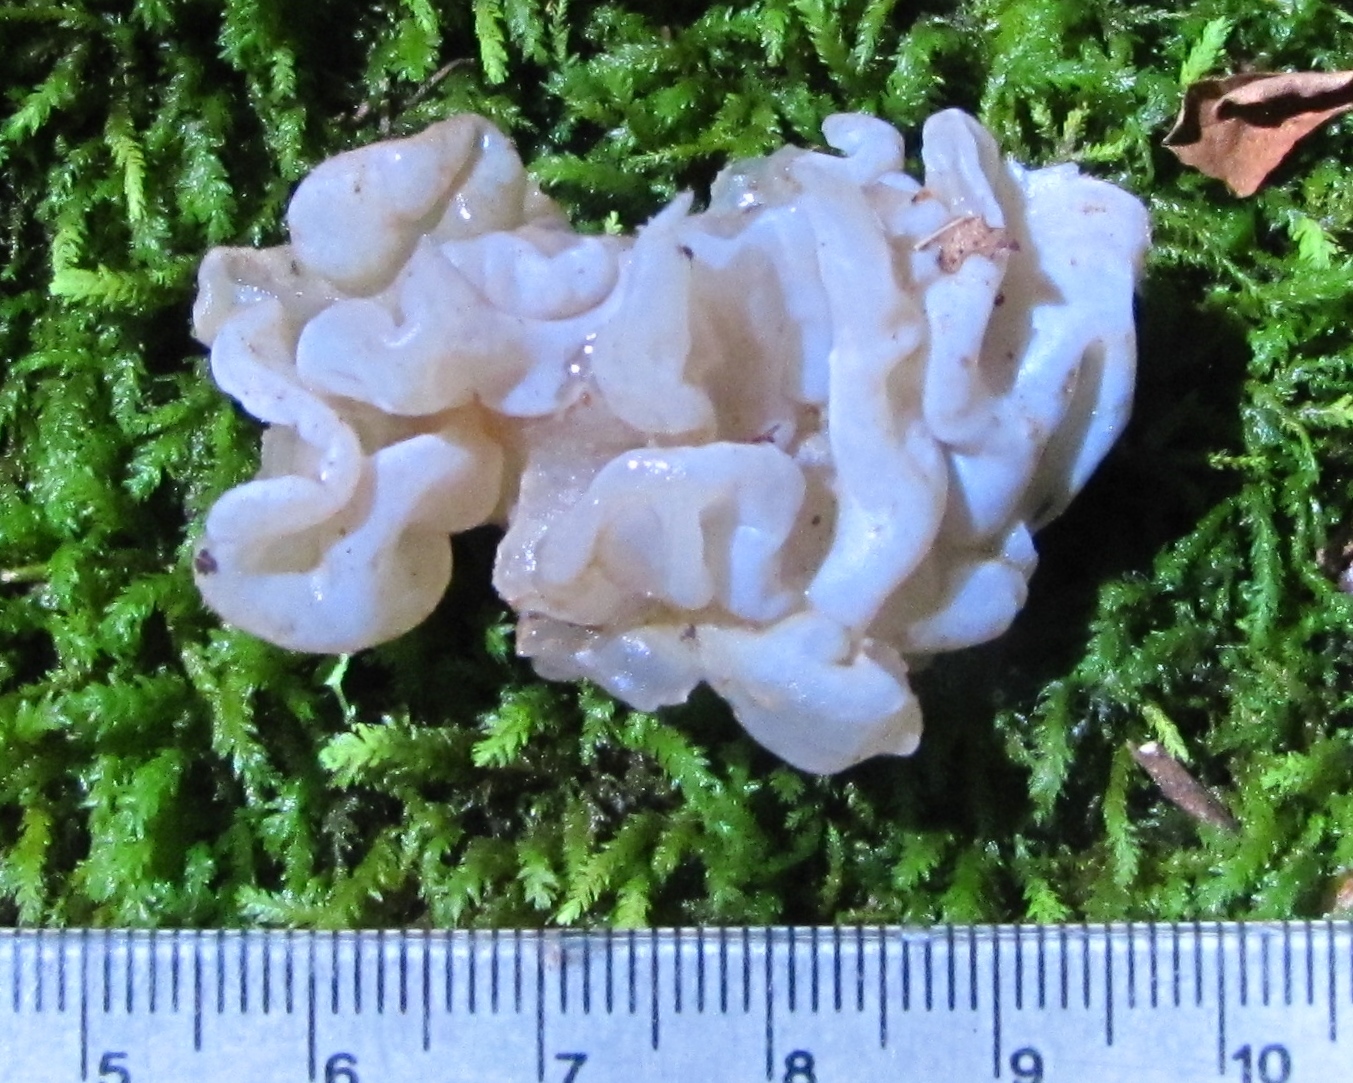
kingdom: Fungi
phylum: Basidiomycota
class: Agaricomycetes
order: Auriculariales
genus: Ductifera
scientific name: Ductifera pululahuana
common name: White jelly fungus
